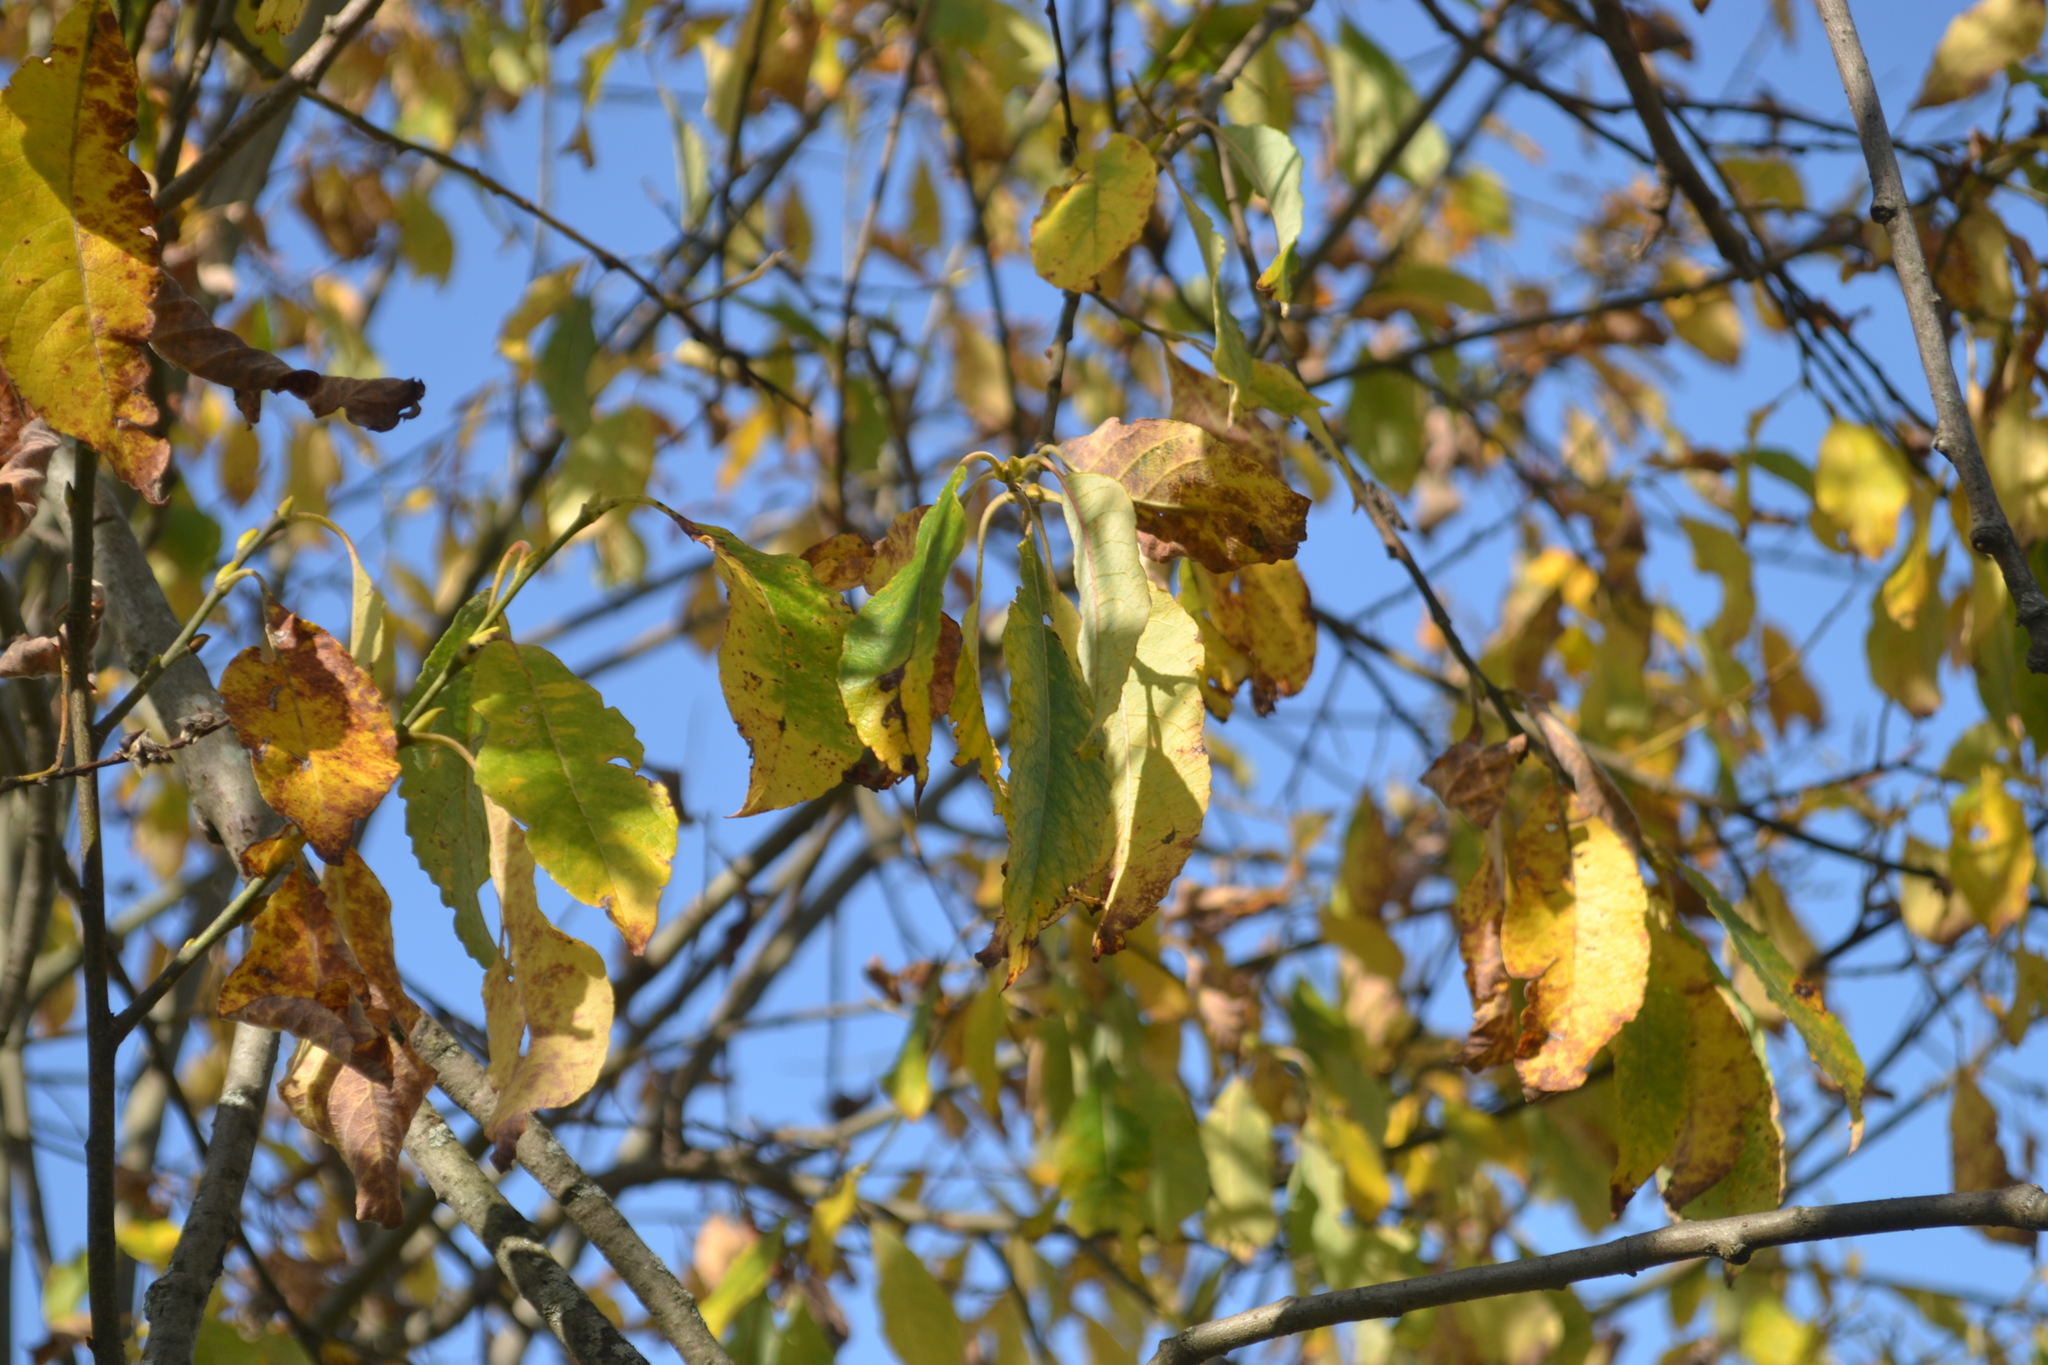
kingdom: Plantae
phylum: Tracheophyta
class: Magnoliopsida
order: Malpighiales
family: Salicaceae
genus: Salix
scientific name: Salix caprea
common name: Goat willow
